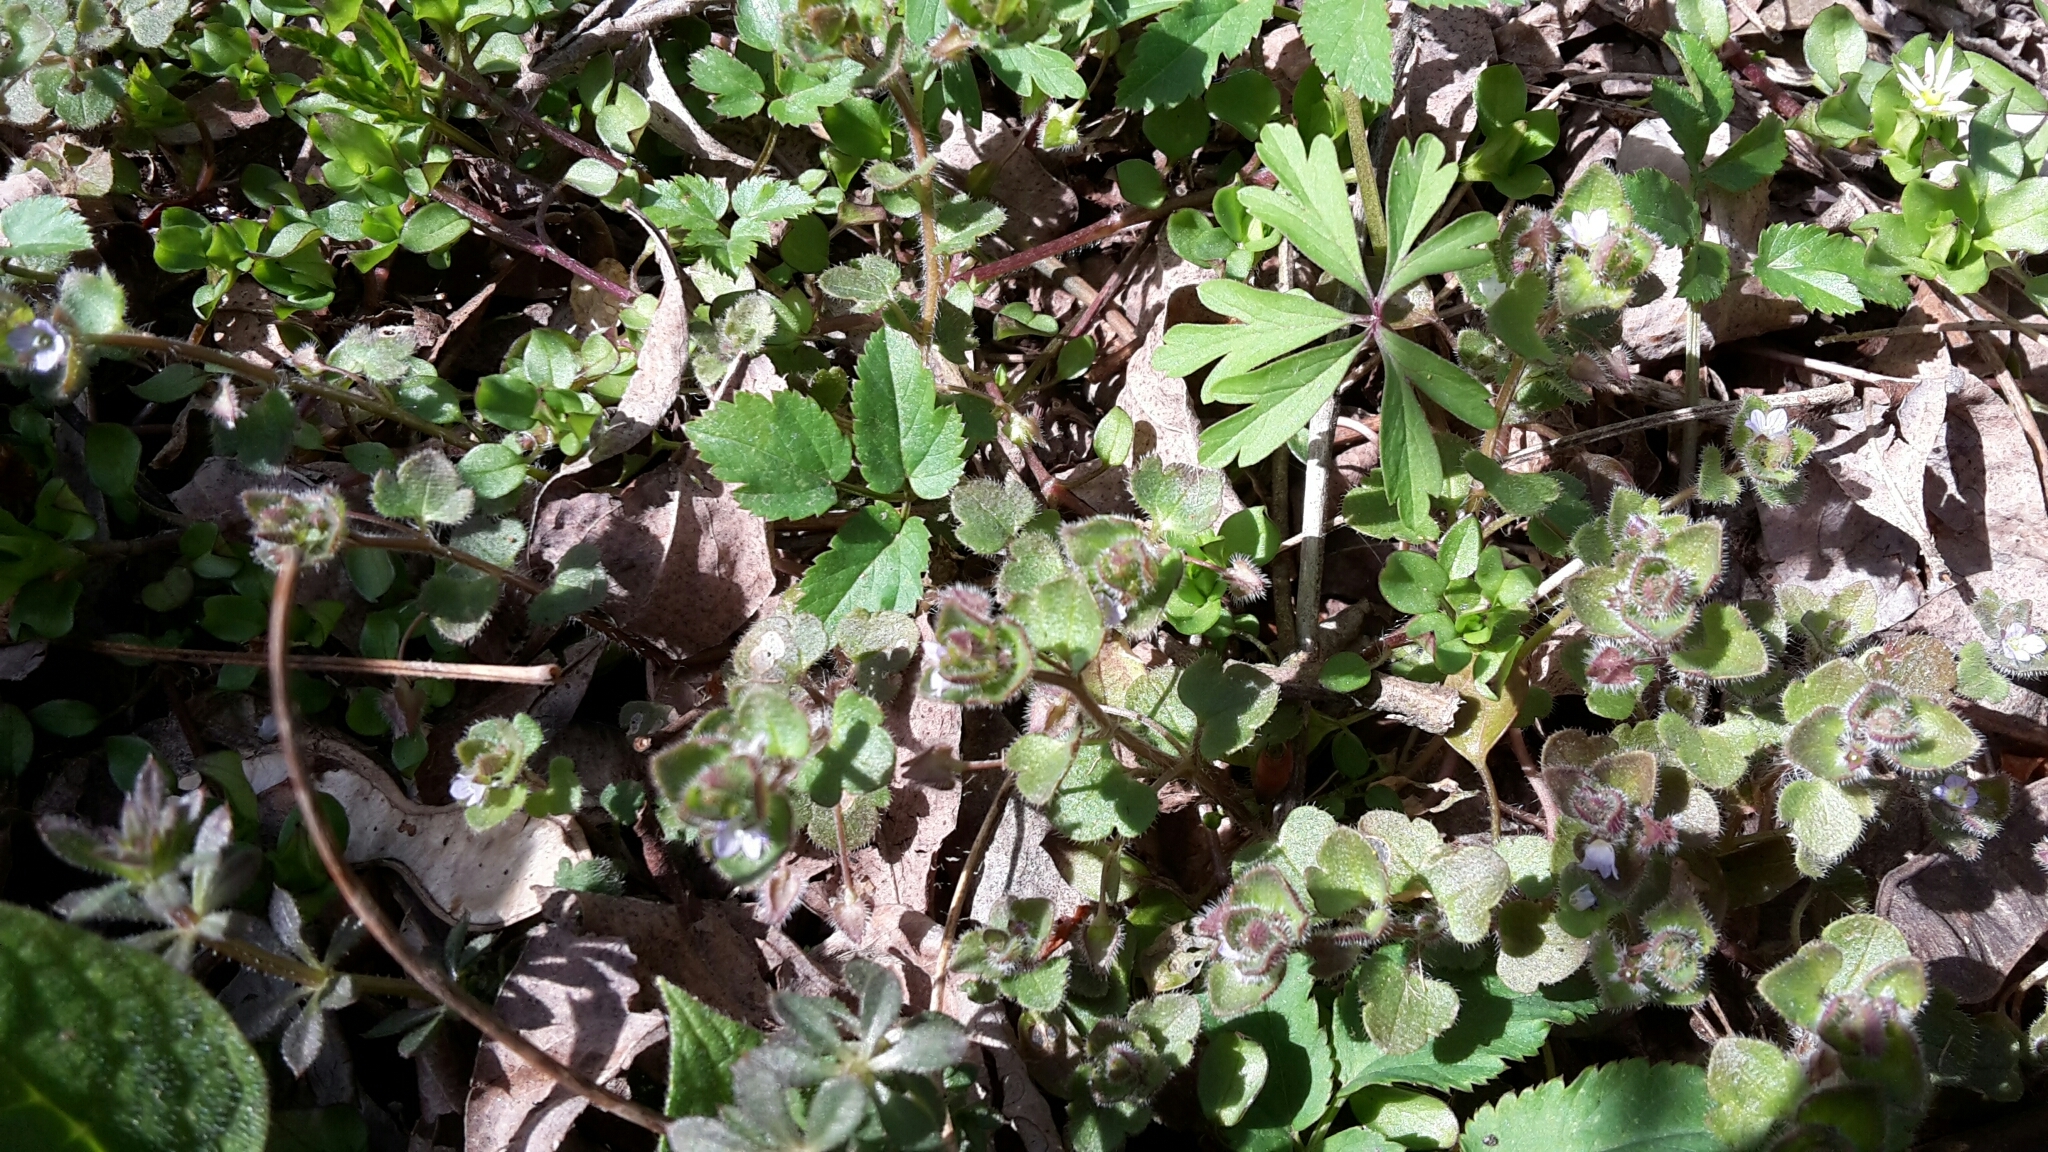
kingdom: Plantae
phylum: Tracheophyta
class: Magnoliopsida
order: Lamiales
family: Plantaginaceae
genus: Veronica
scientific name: Veronica hederifolia
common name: Ivy-leaved speedwell
